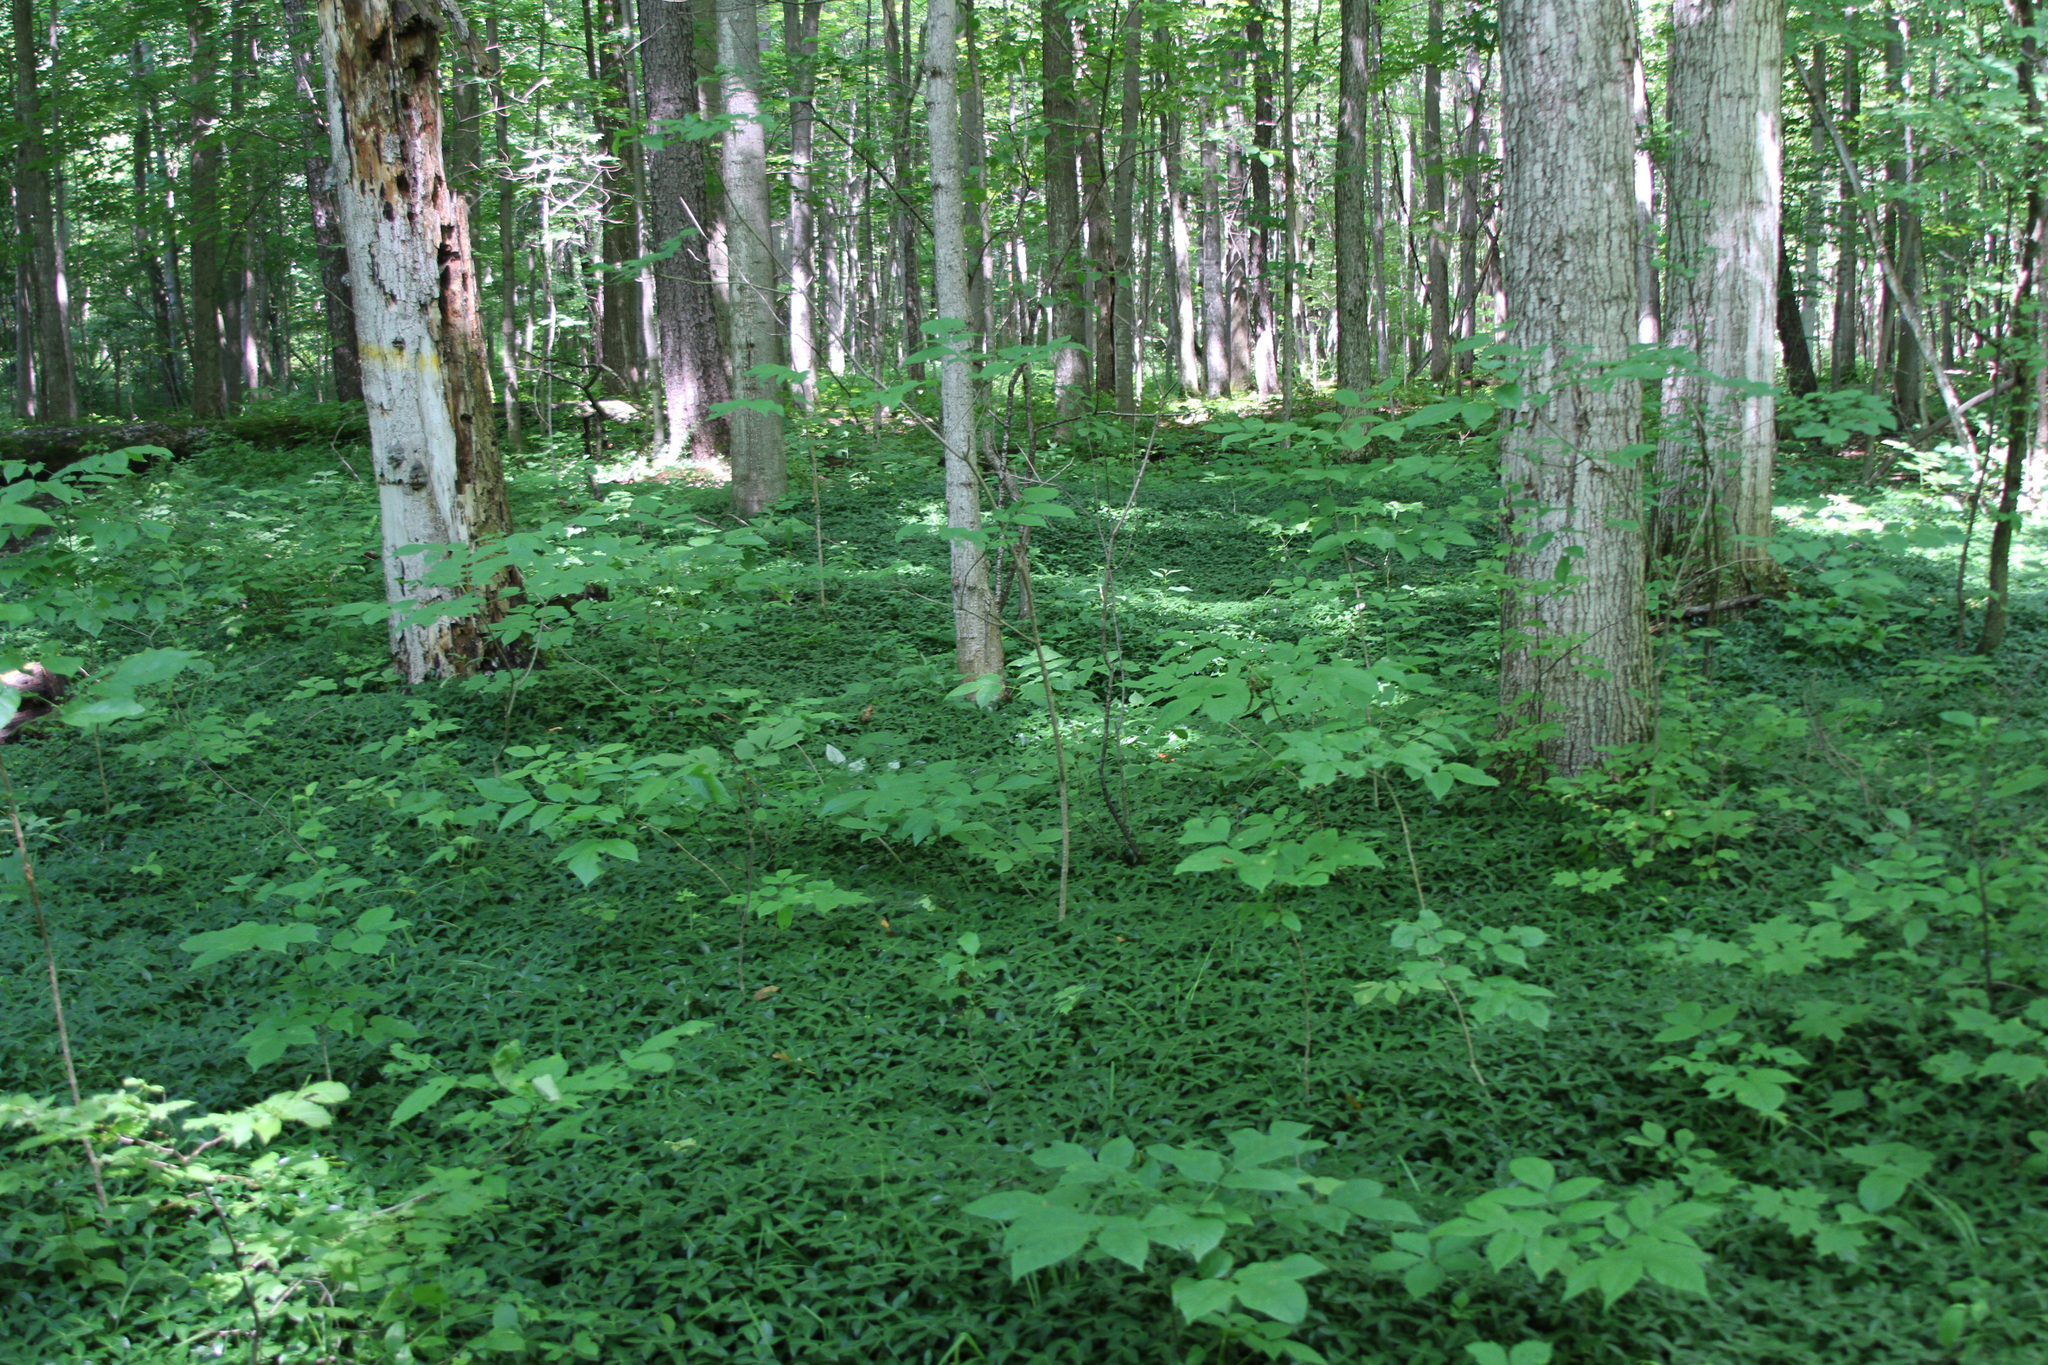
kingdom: Plantae
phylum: Tracheophyta
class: Magnoliopsida
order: Gentianales
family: Apocynaceae
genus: Vinca
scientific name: Vinca minor
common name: Lesser periwinkle
